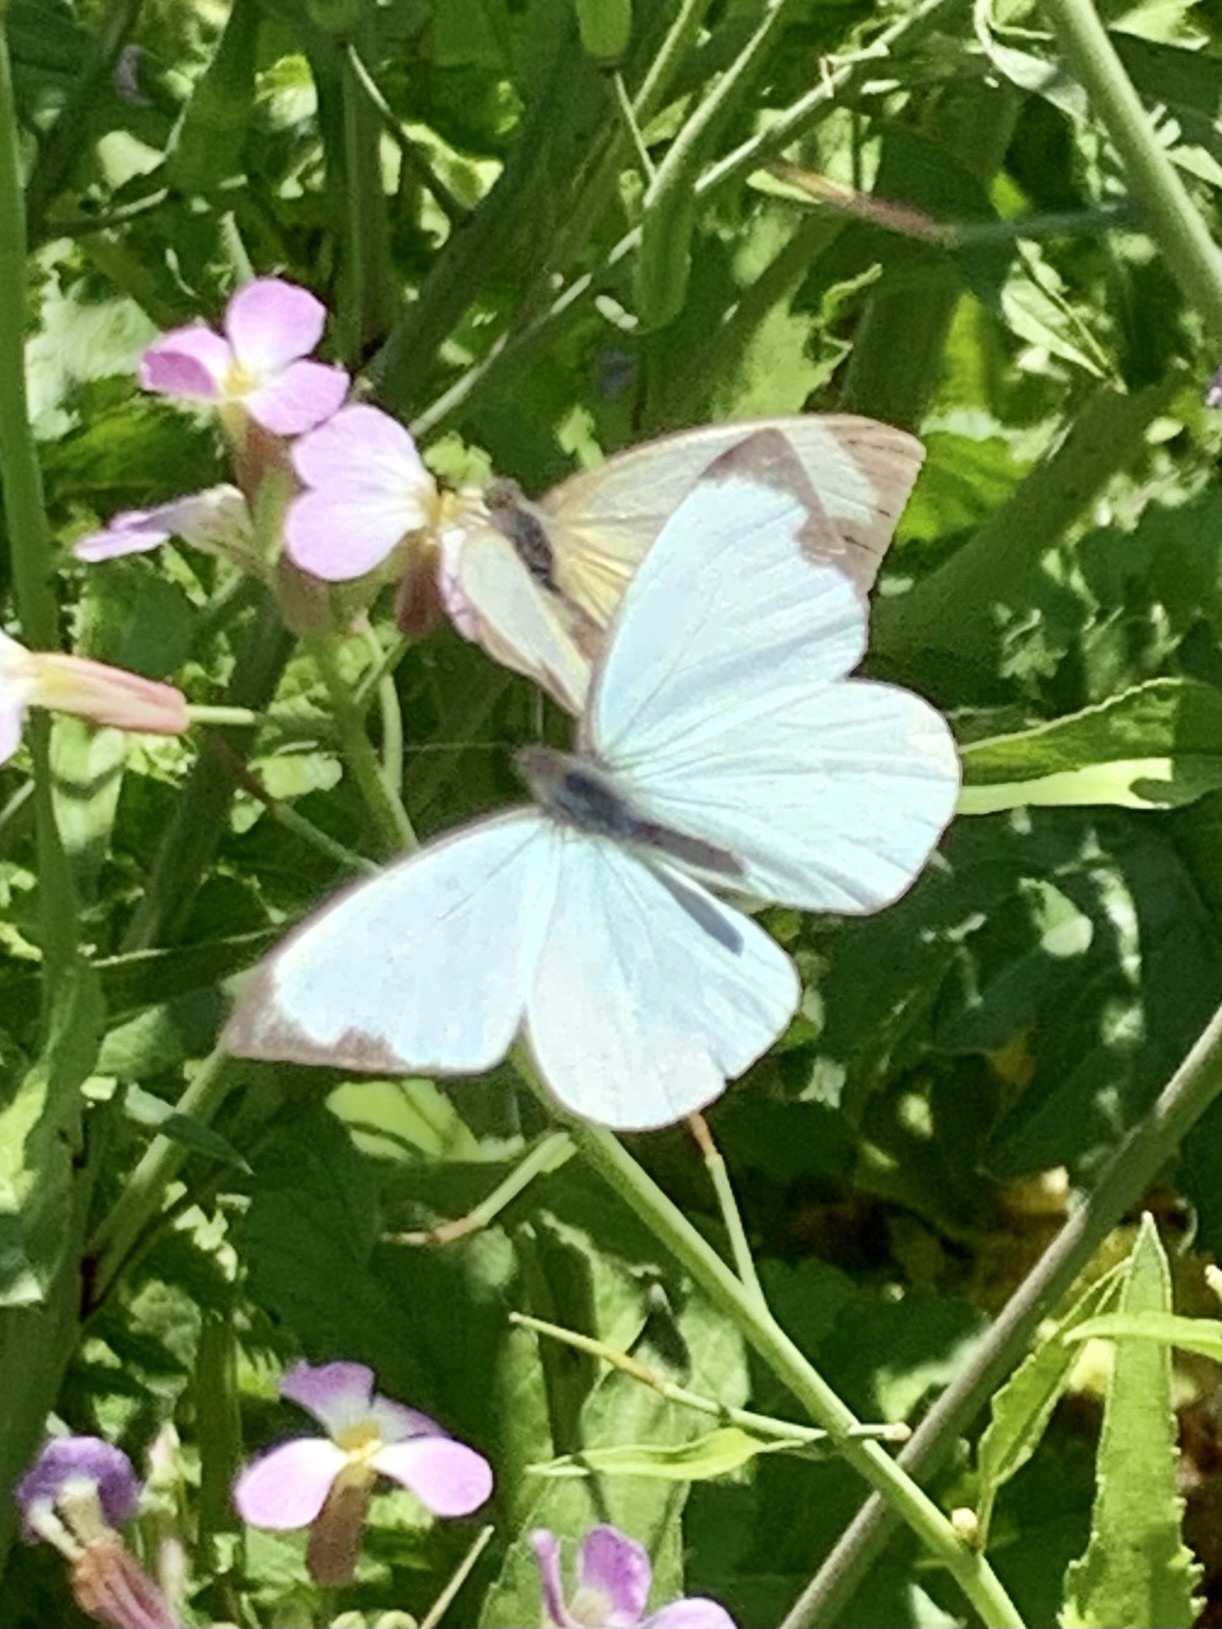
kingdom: Animalia
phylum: Arthropoda
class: Insecta
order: Lepidoptera
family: Pieridae
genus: Leptophobia
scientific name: Leptophobia aripa
